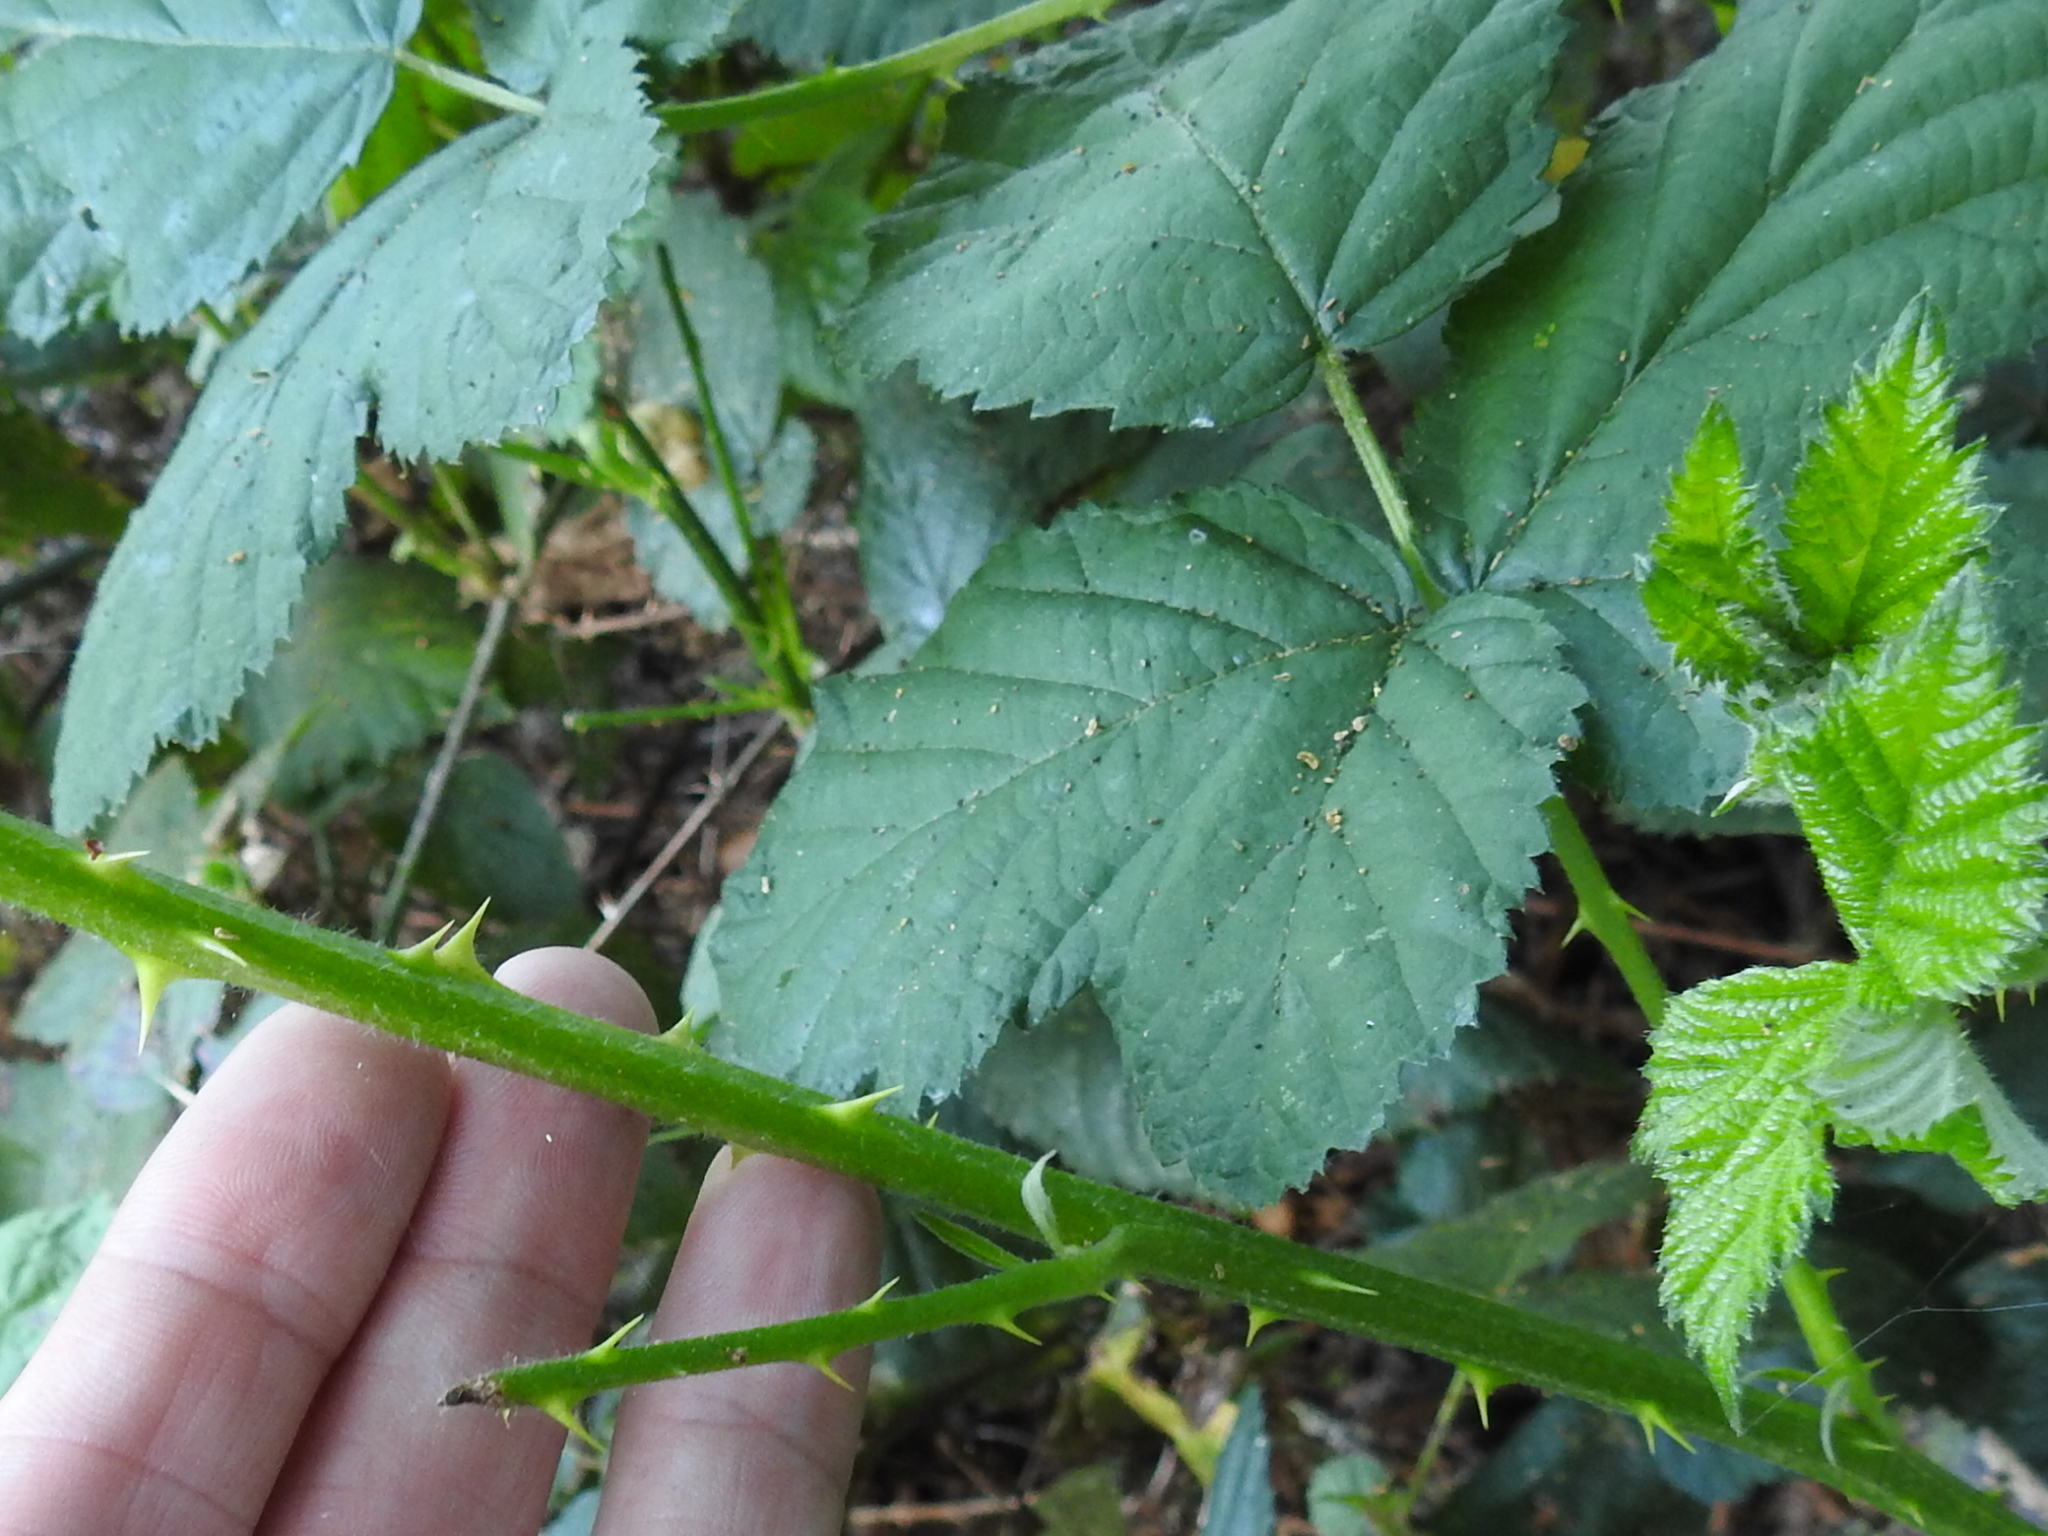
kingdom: Plantae
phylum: Tracheophyta
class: Magnoliopsida
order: Rosales
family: Rosaceae
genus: Rubus
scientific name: Rubus ursinus
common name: Pacific blackberry
